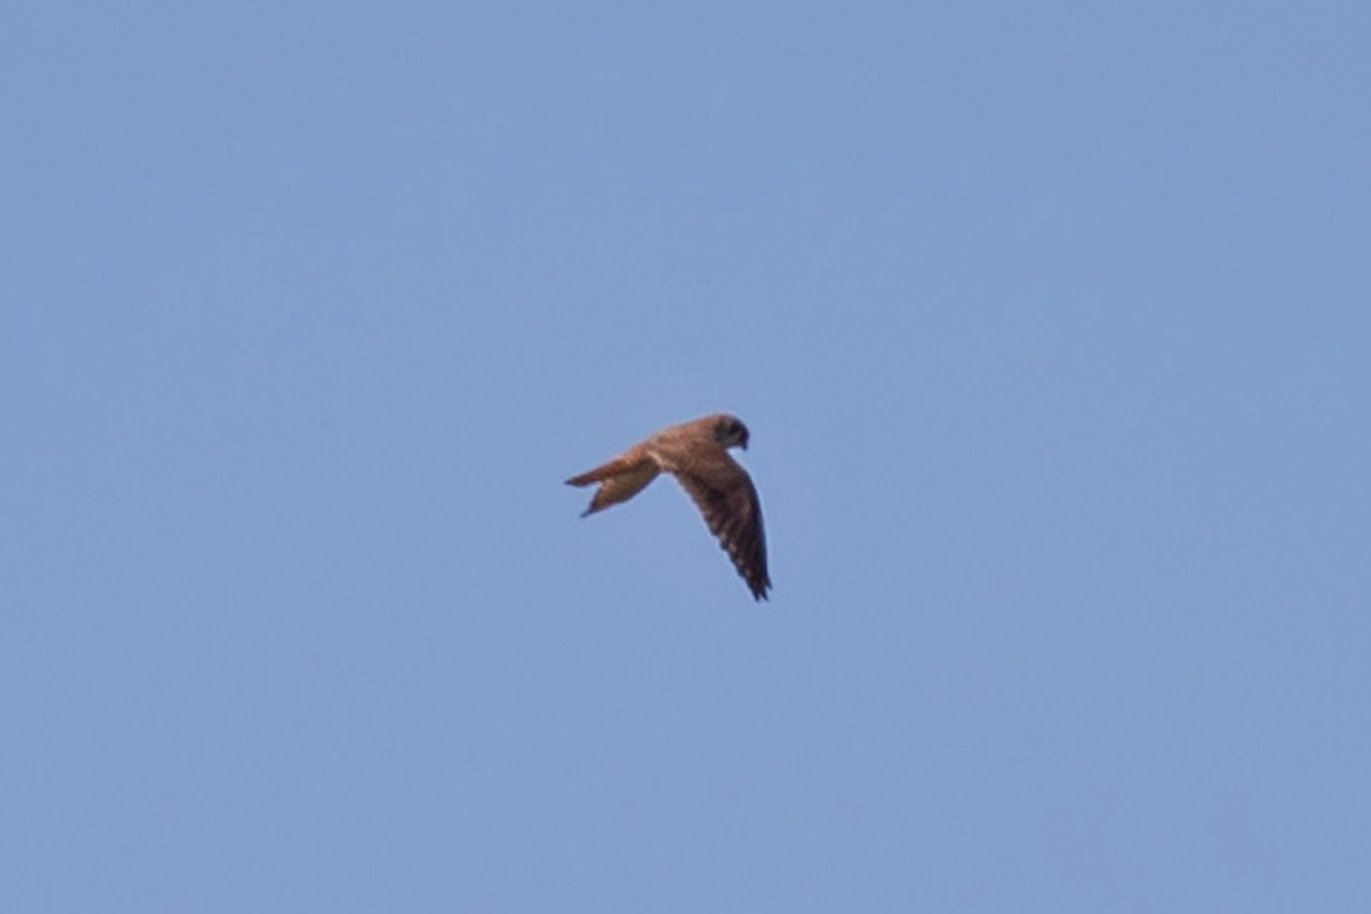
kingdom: Animalia
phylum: Chordata
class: Aves
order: Falconiformes
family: Falconidae
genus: Falco
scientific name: Falco sparverius
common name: American kestrel
